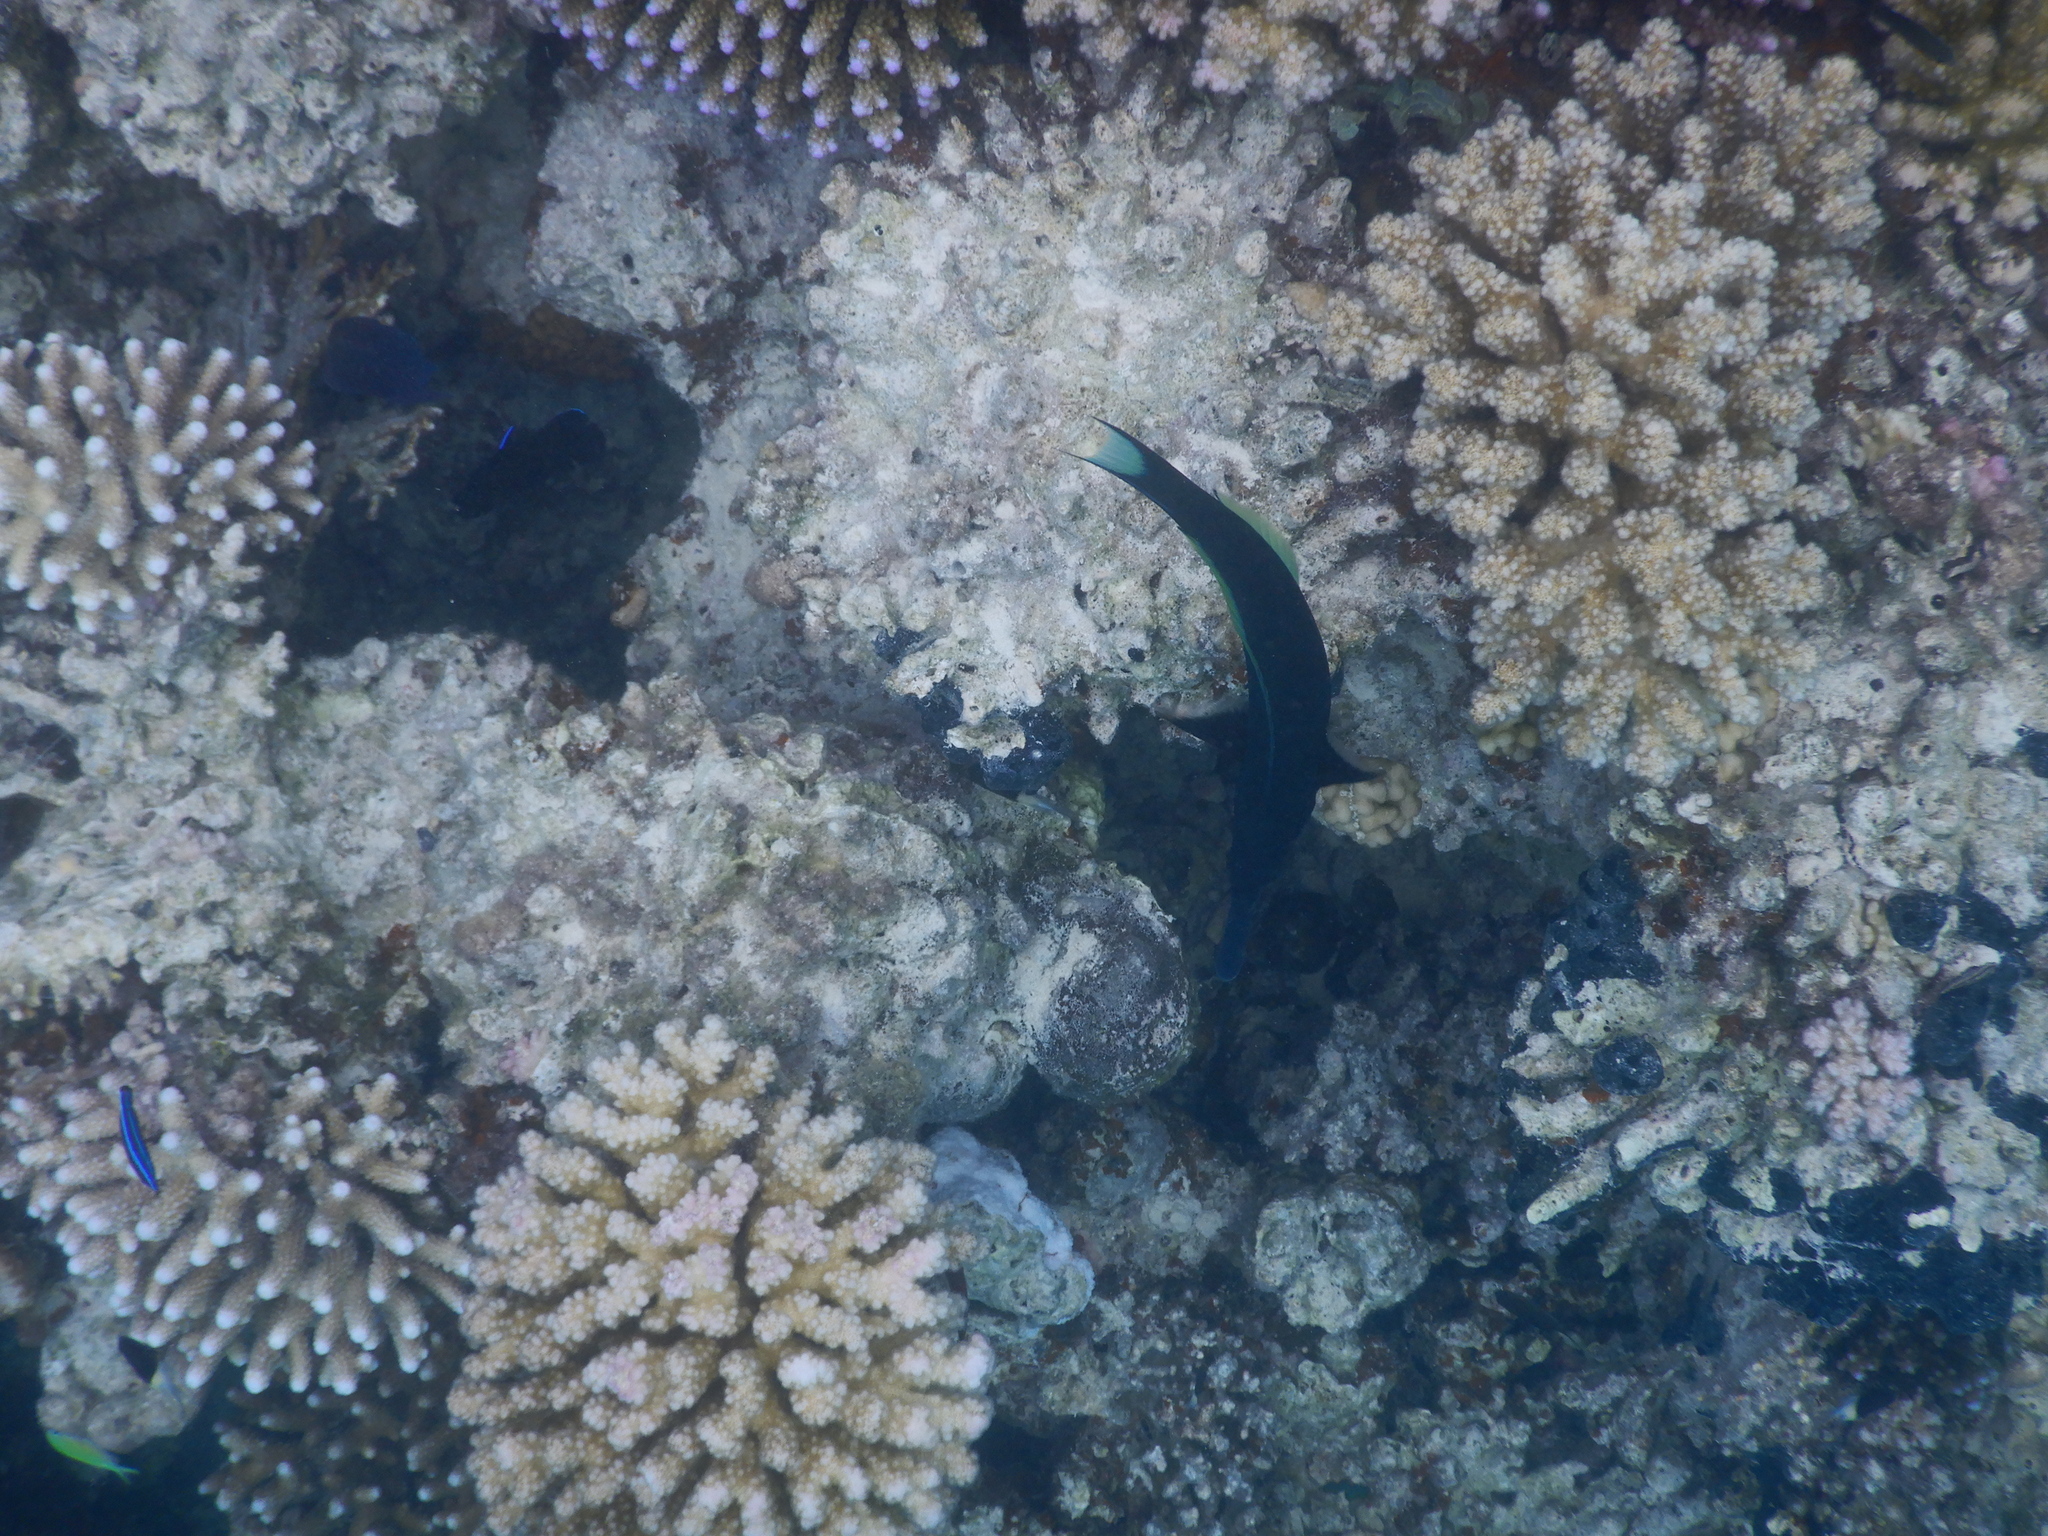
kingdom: Animalia
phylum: Chordata
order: Perciformes
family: Labridae
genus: Gomphosus
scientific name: Gomphosus klunzingeri
